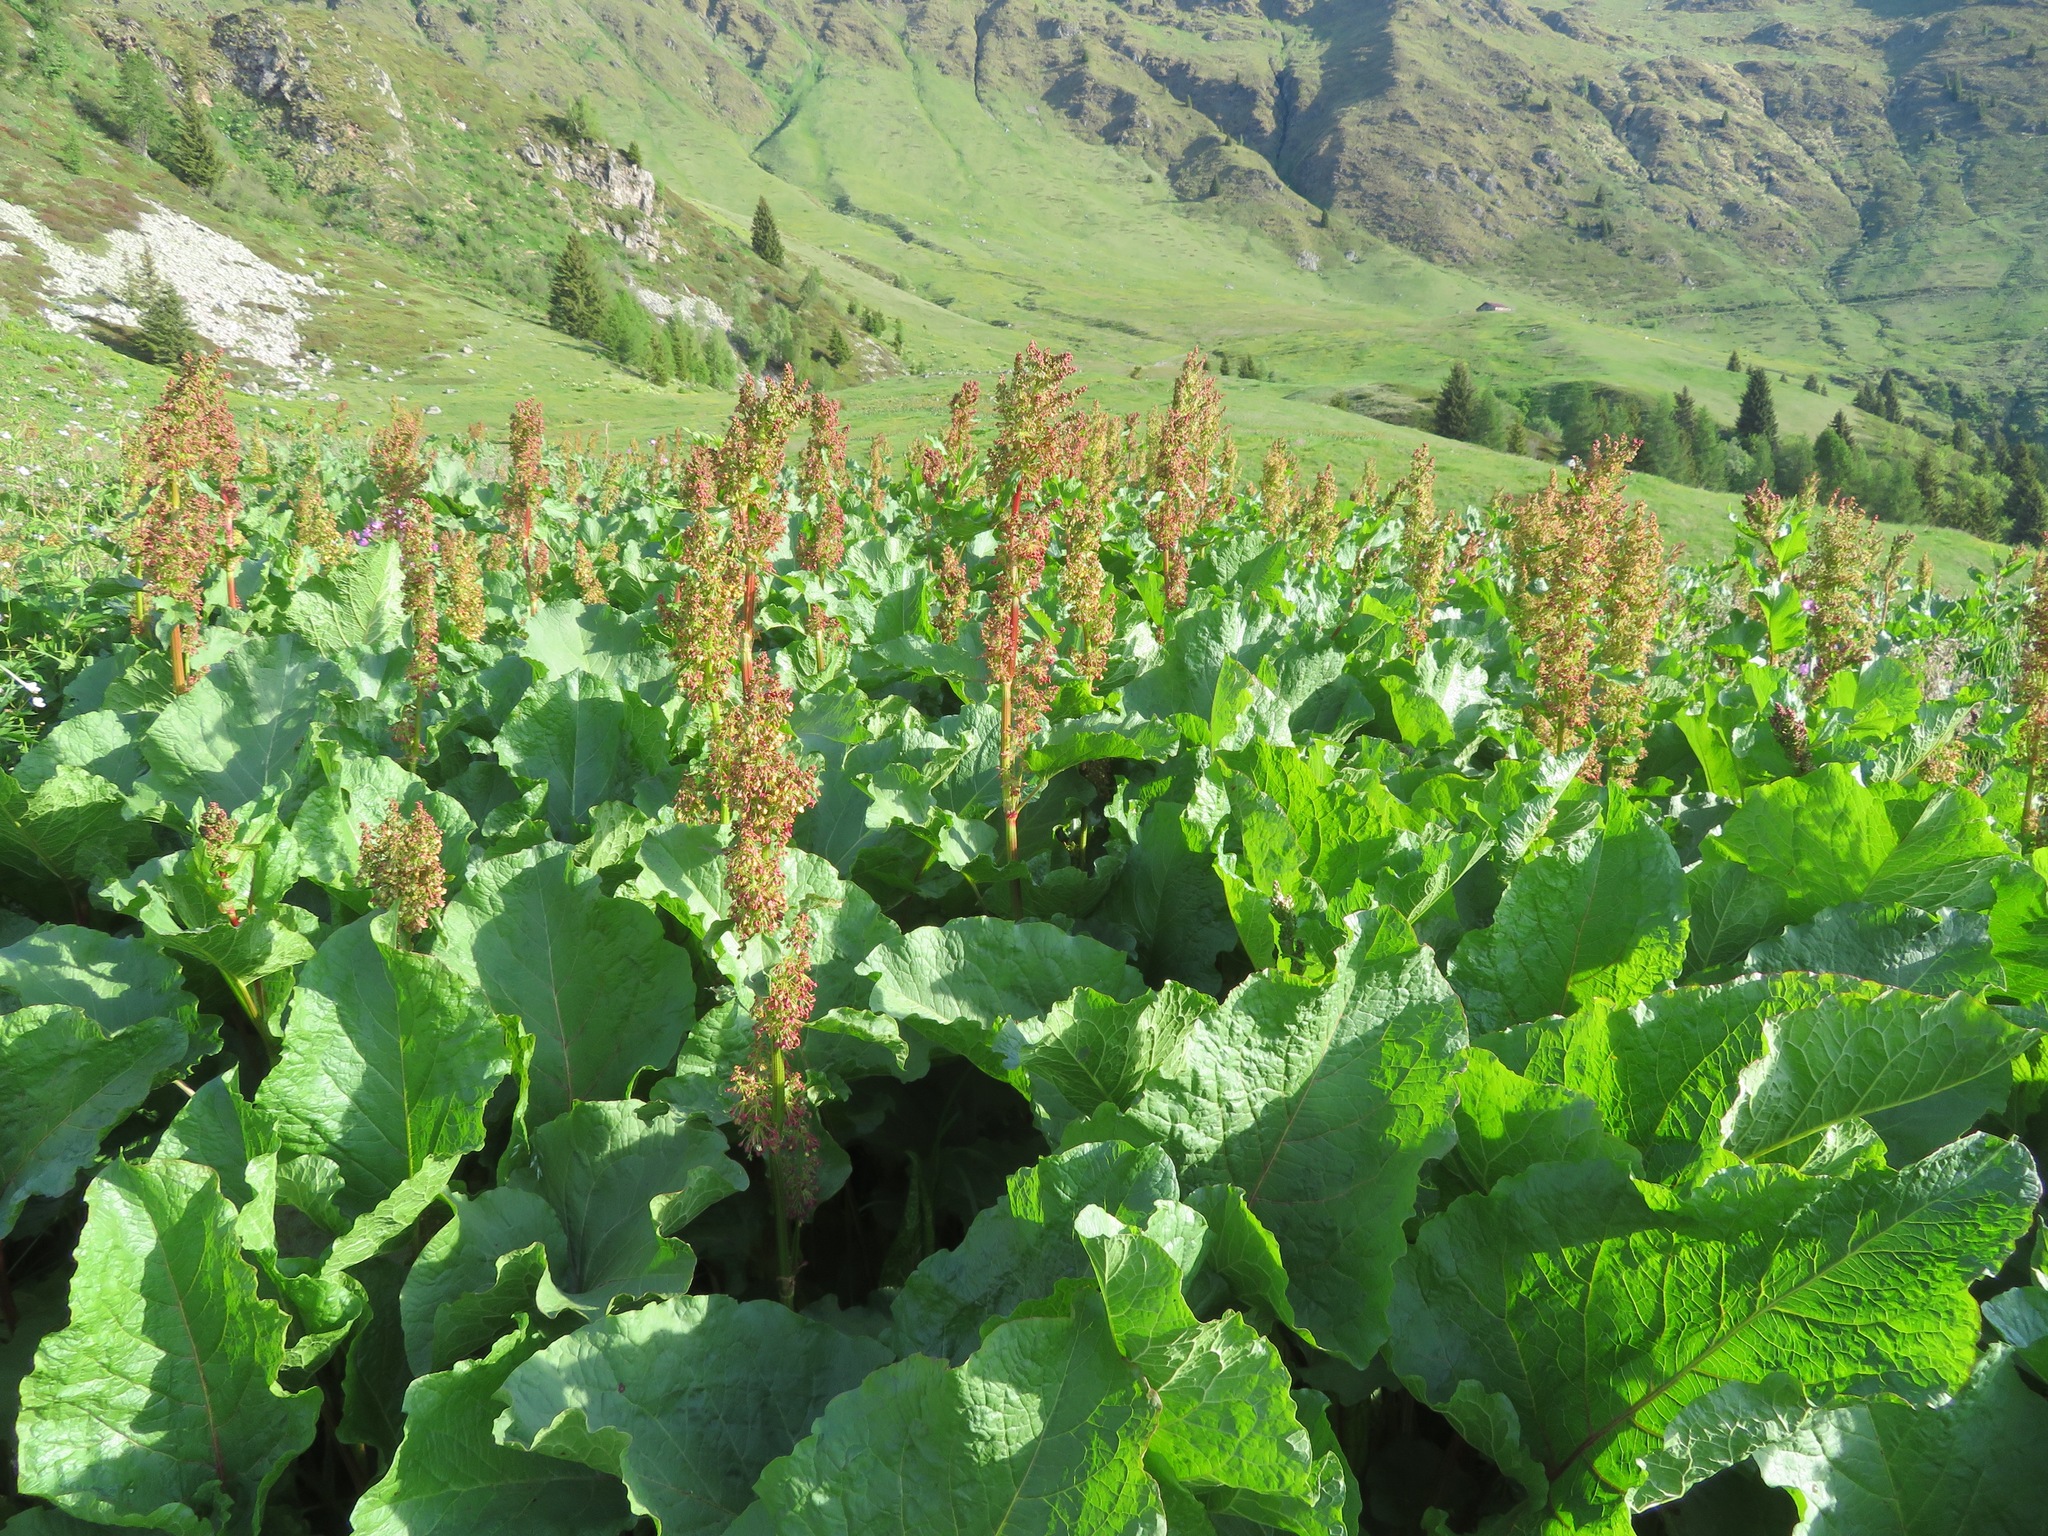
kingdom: Plantae
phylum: Tracheophyta
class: Magnoliopsida
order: Caryophyllales
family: Polygonaceae
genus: Rumex
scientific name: Rumex alpinus
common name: Alpine dock
